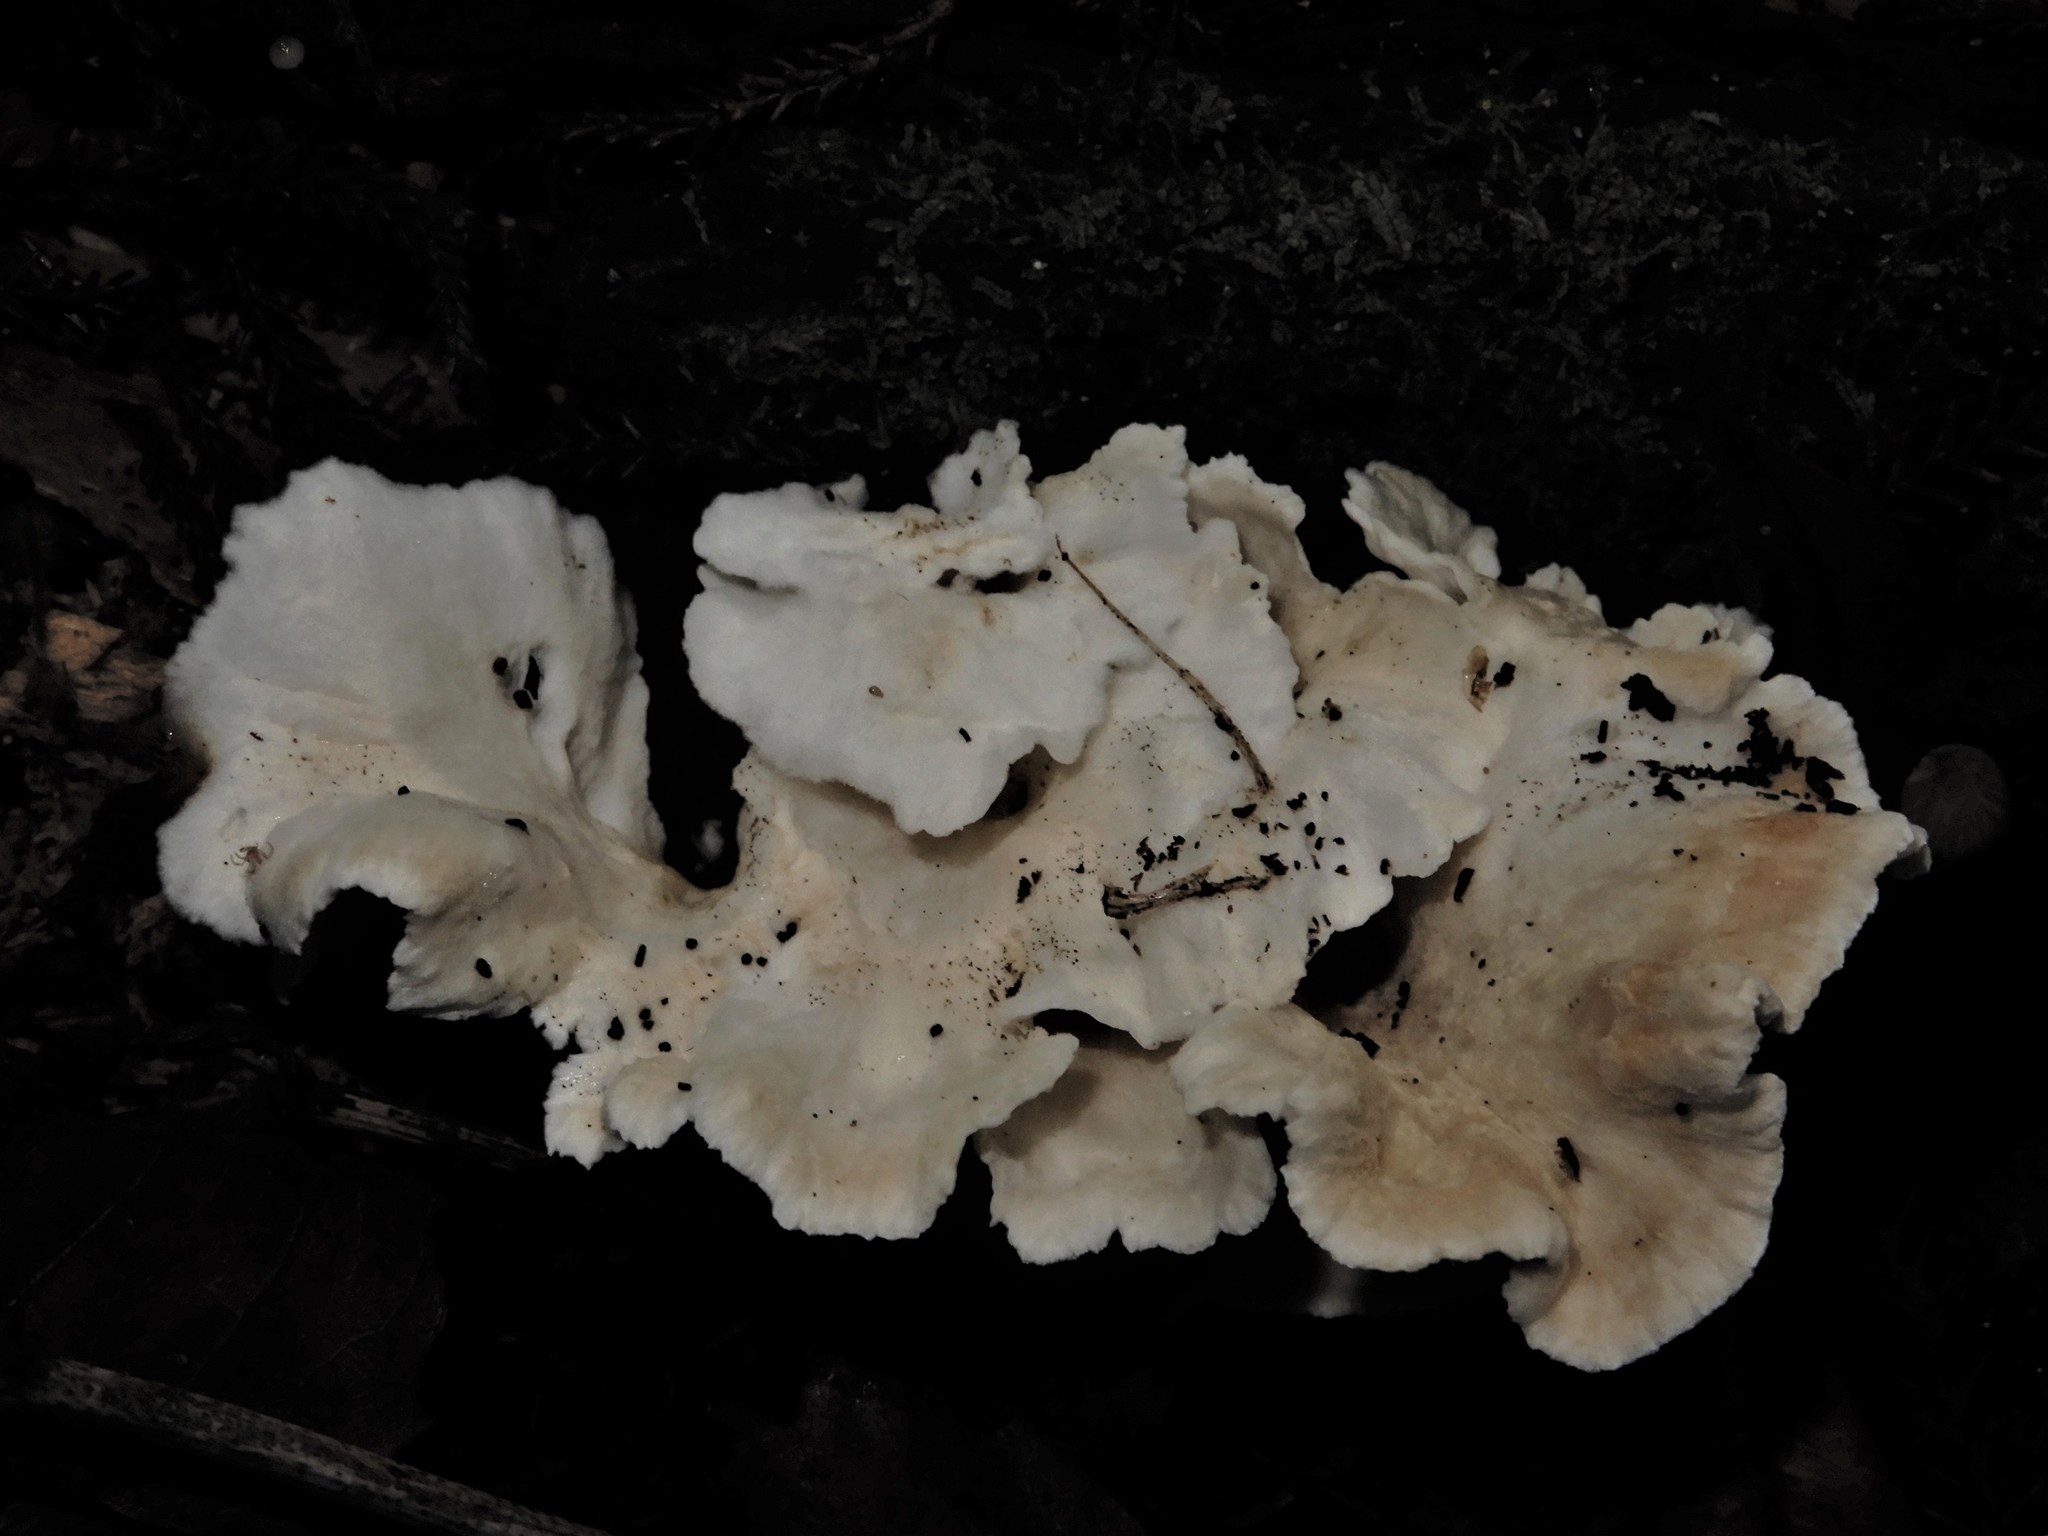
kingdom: Fungi
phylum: Basidiomycota
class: Agaricomycetes
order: Amylocorticiales
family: Amylocorticiaceae
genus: Podoserpula
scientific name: Podoserpula
